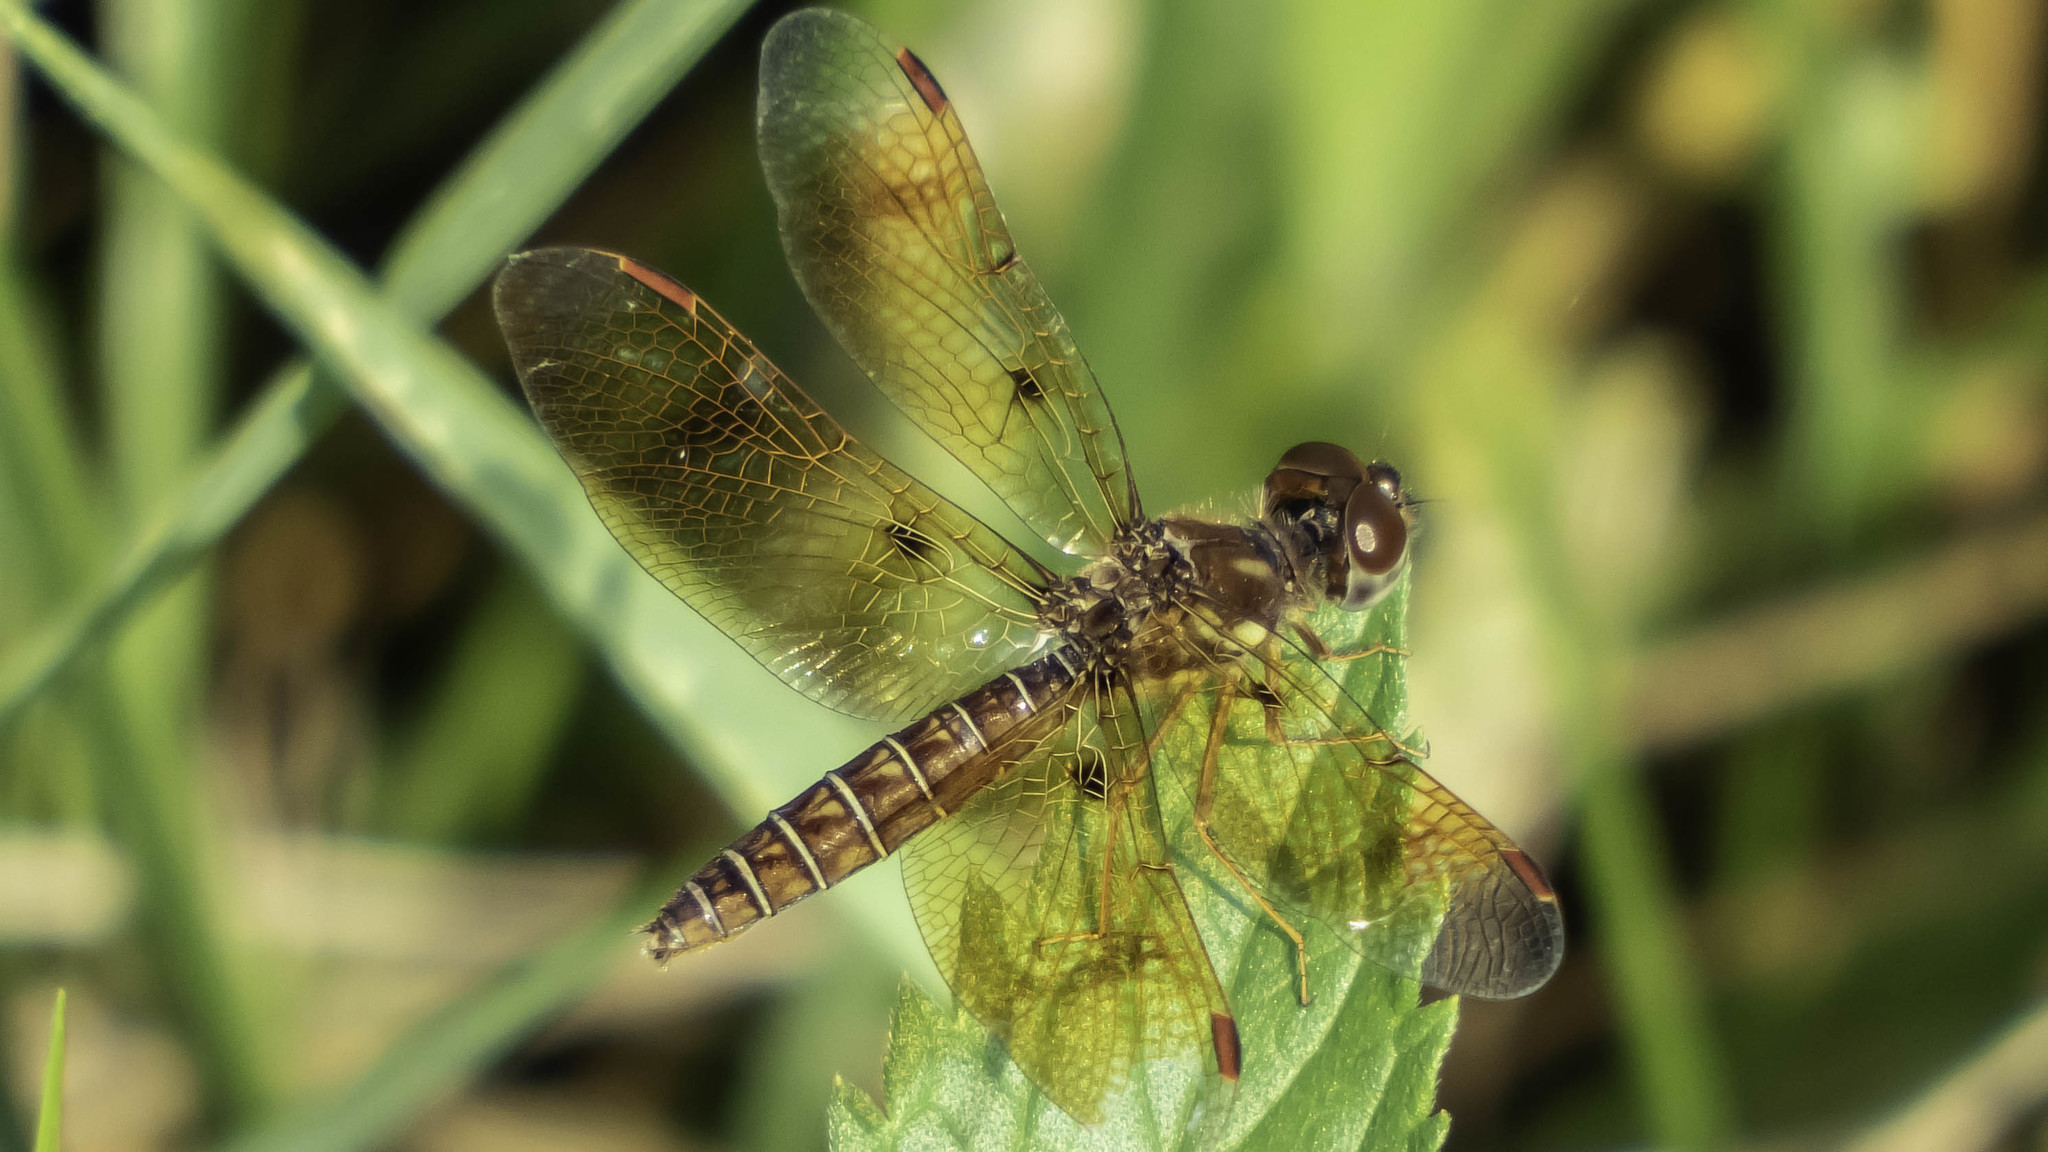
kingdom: Animalia
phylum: Arthropoda
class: Insecta
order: Odonata
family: Libellulidae
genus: Perithemis
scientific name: Perithemis tenera
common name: Eastern amberwing
